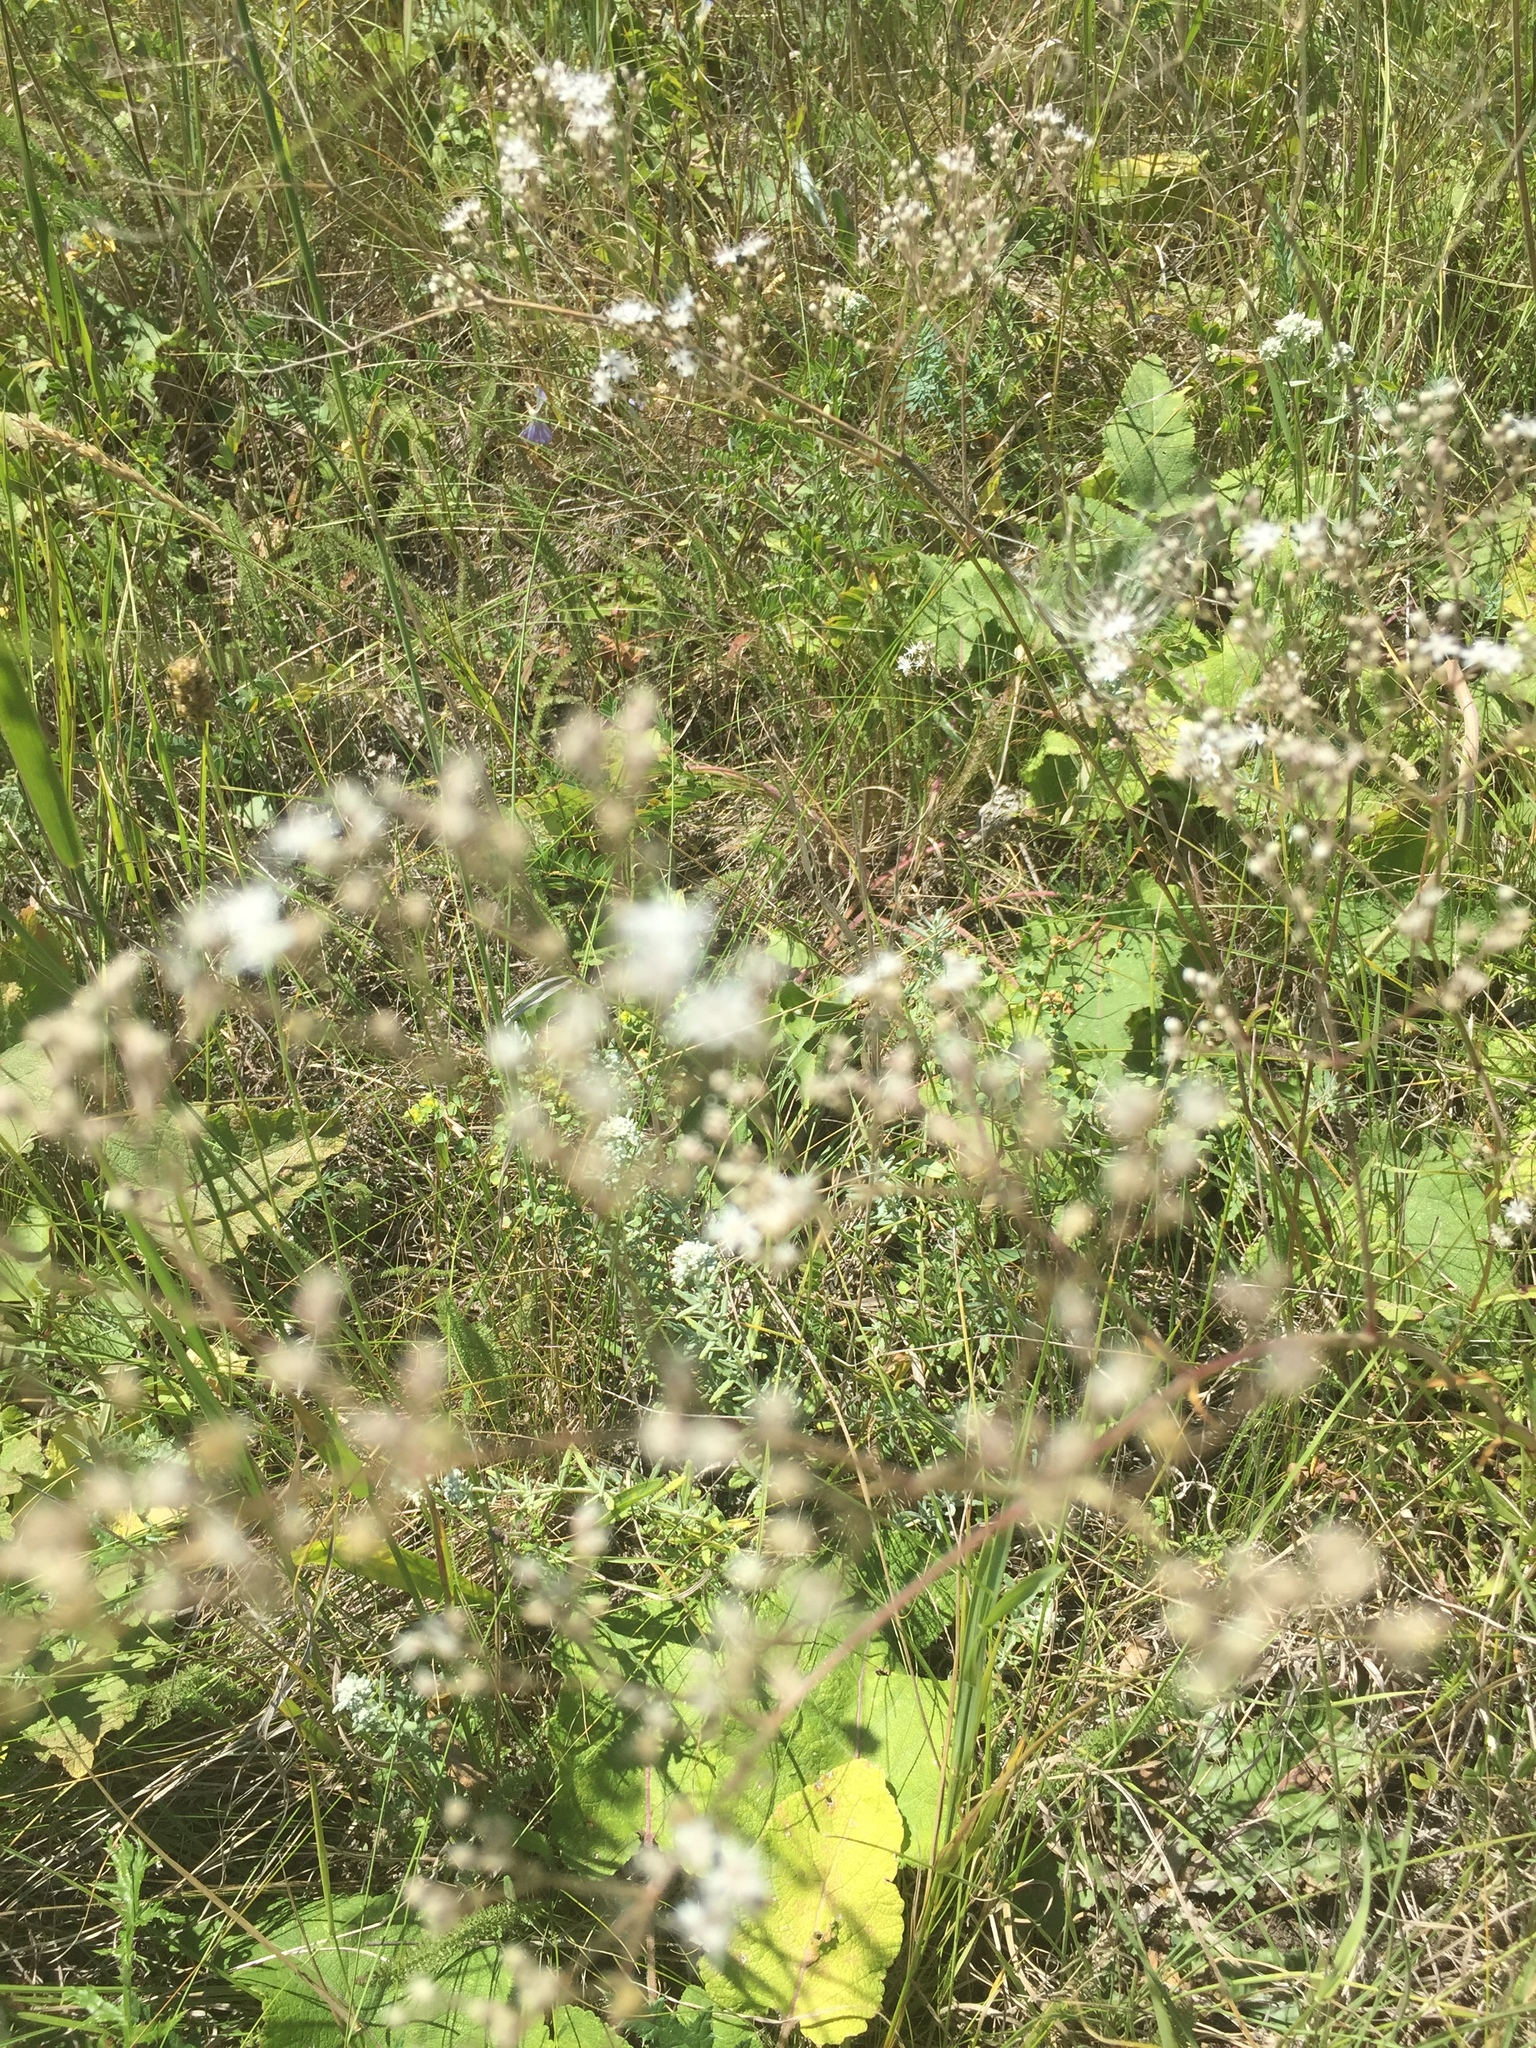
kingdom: Plantae
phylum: Tracheophyta
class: Magnoliopsida
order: Caryophyllales
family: Caryophyllaceae
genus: Gypsophila
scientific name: Gypsophila altissima
